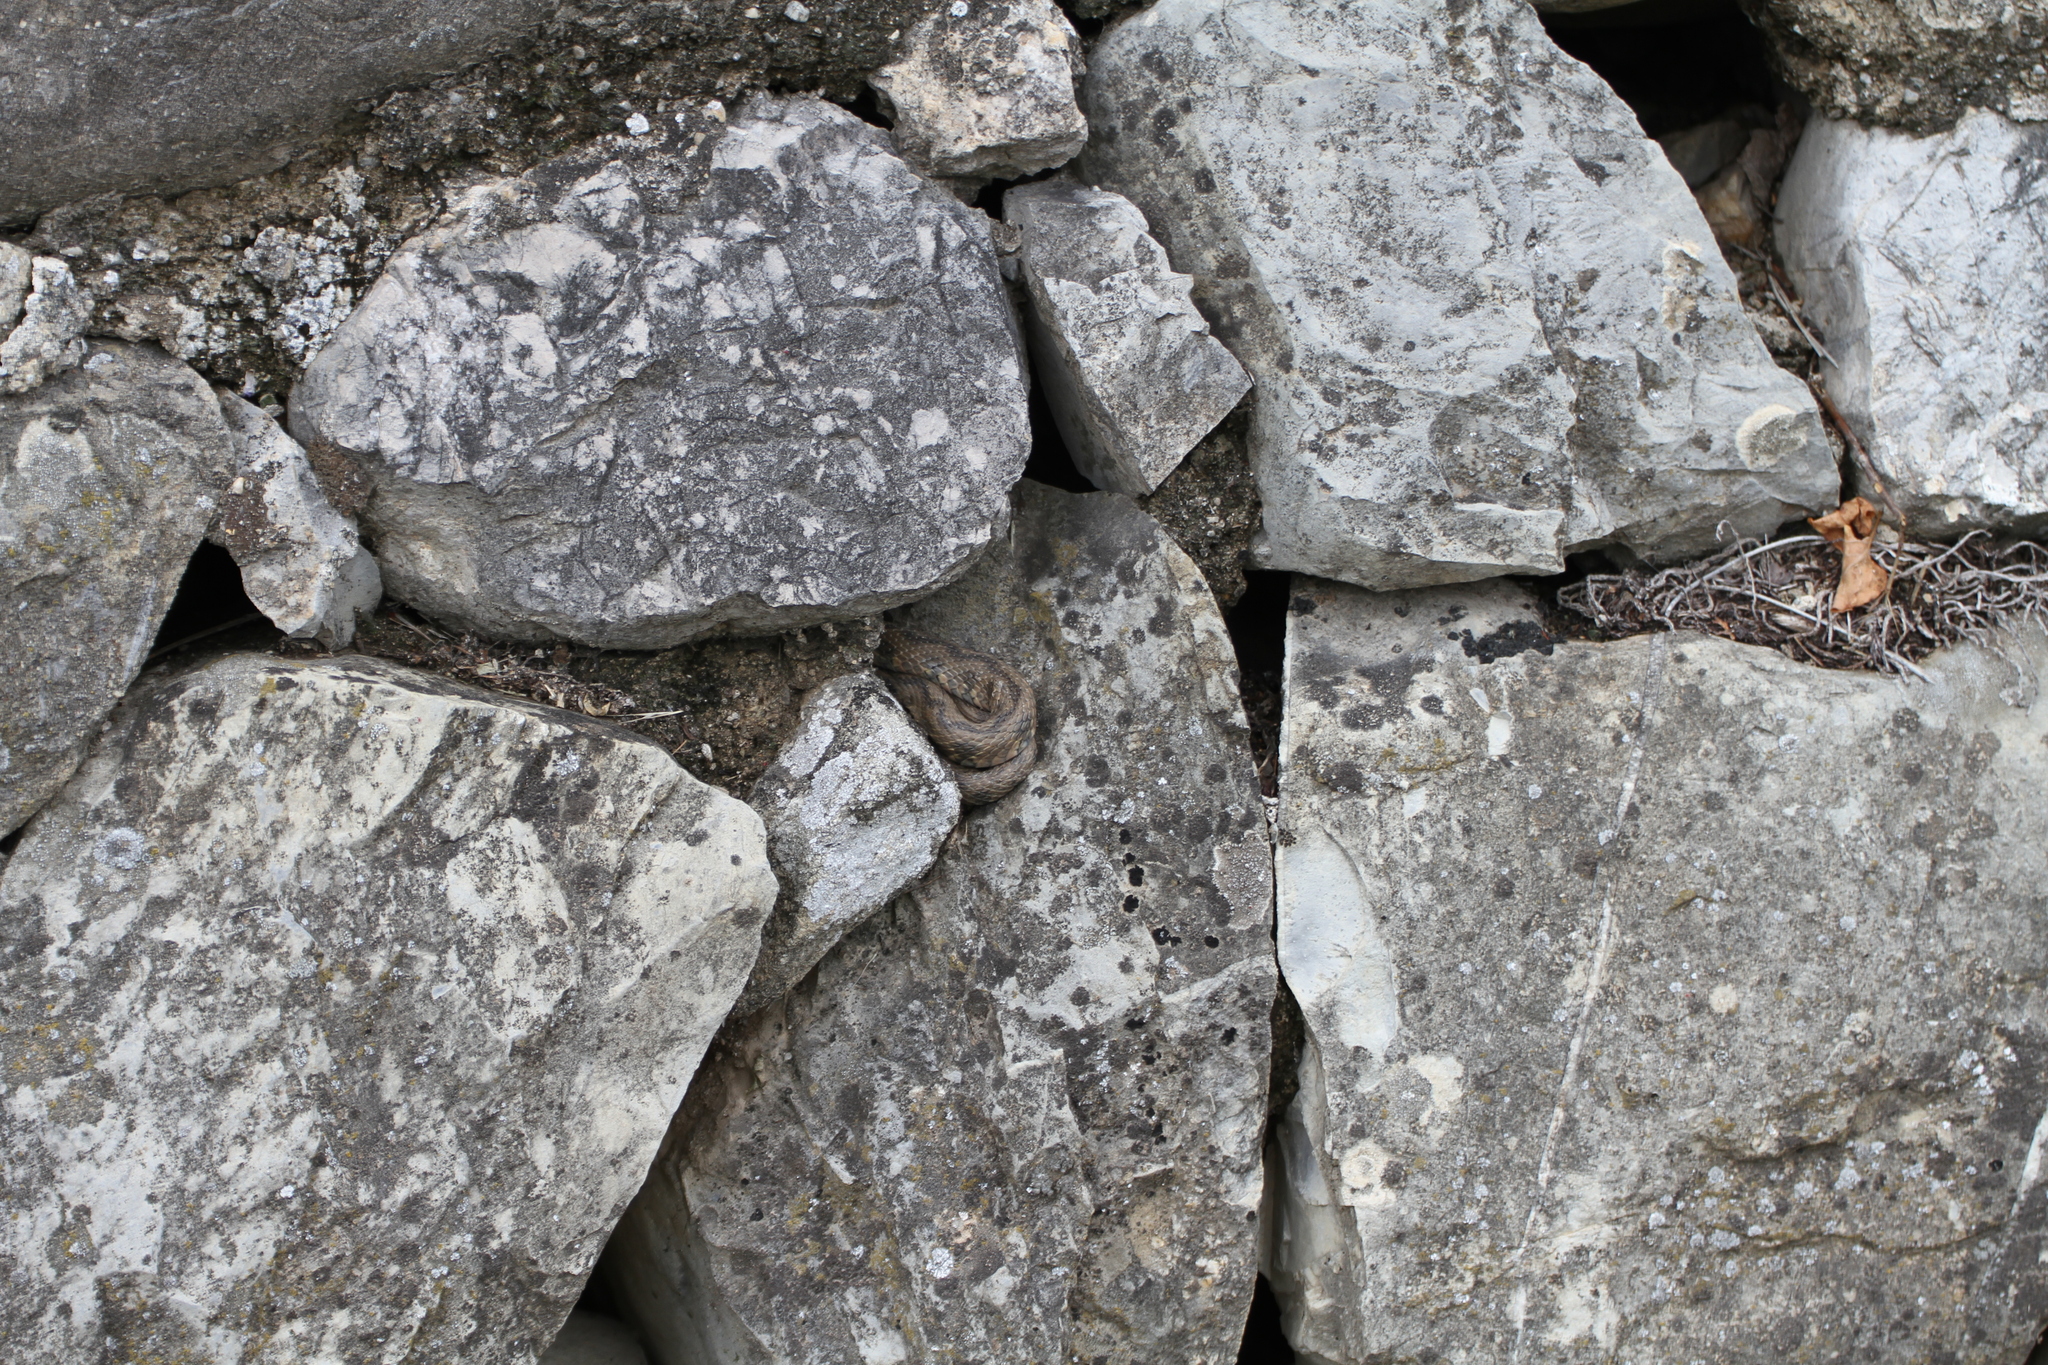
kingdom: Animalia
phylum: Chordata
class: Squamata
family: Colubridae
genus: Natrix
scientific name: Natrix maura
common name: Viperine water snake
